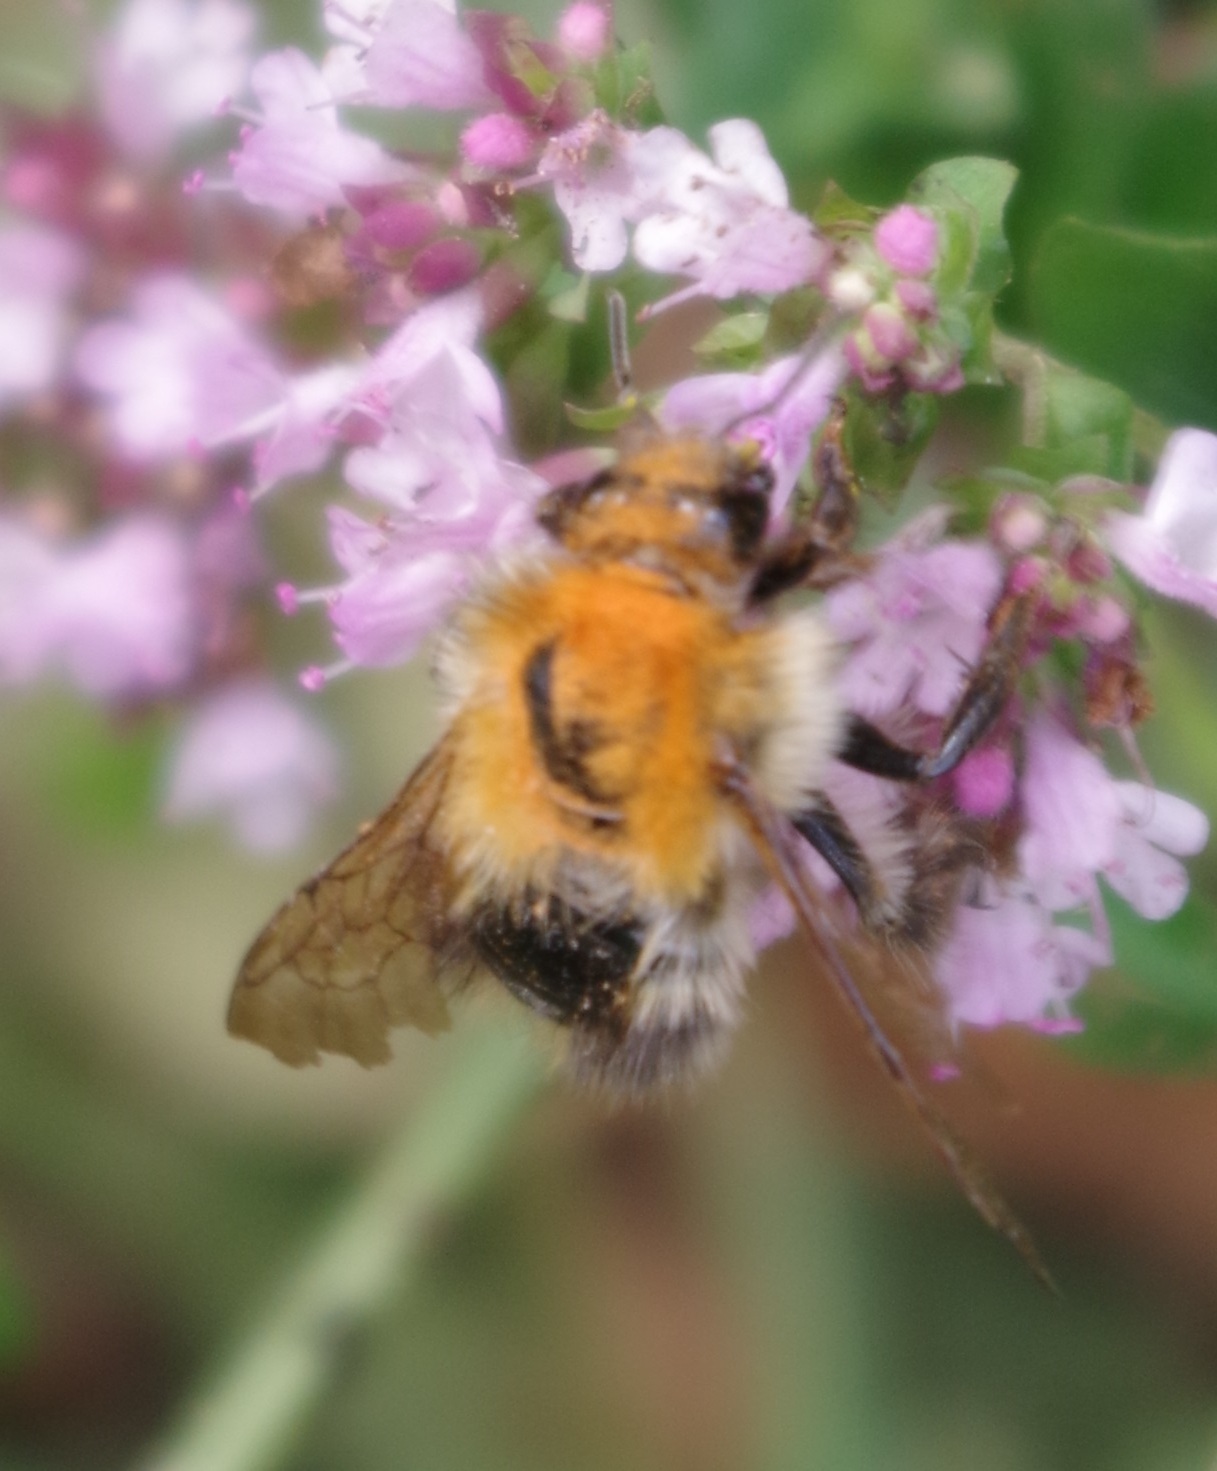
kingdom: Animalia
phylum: Arthropoda
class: Insecta
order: Hymenoptera
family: Apidae
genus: Bombus
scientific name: Bombus pascuorum
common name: Common carder bee
